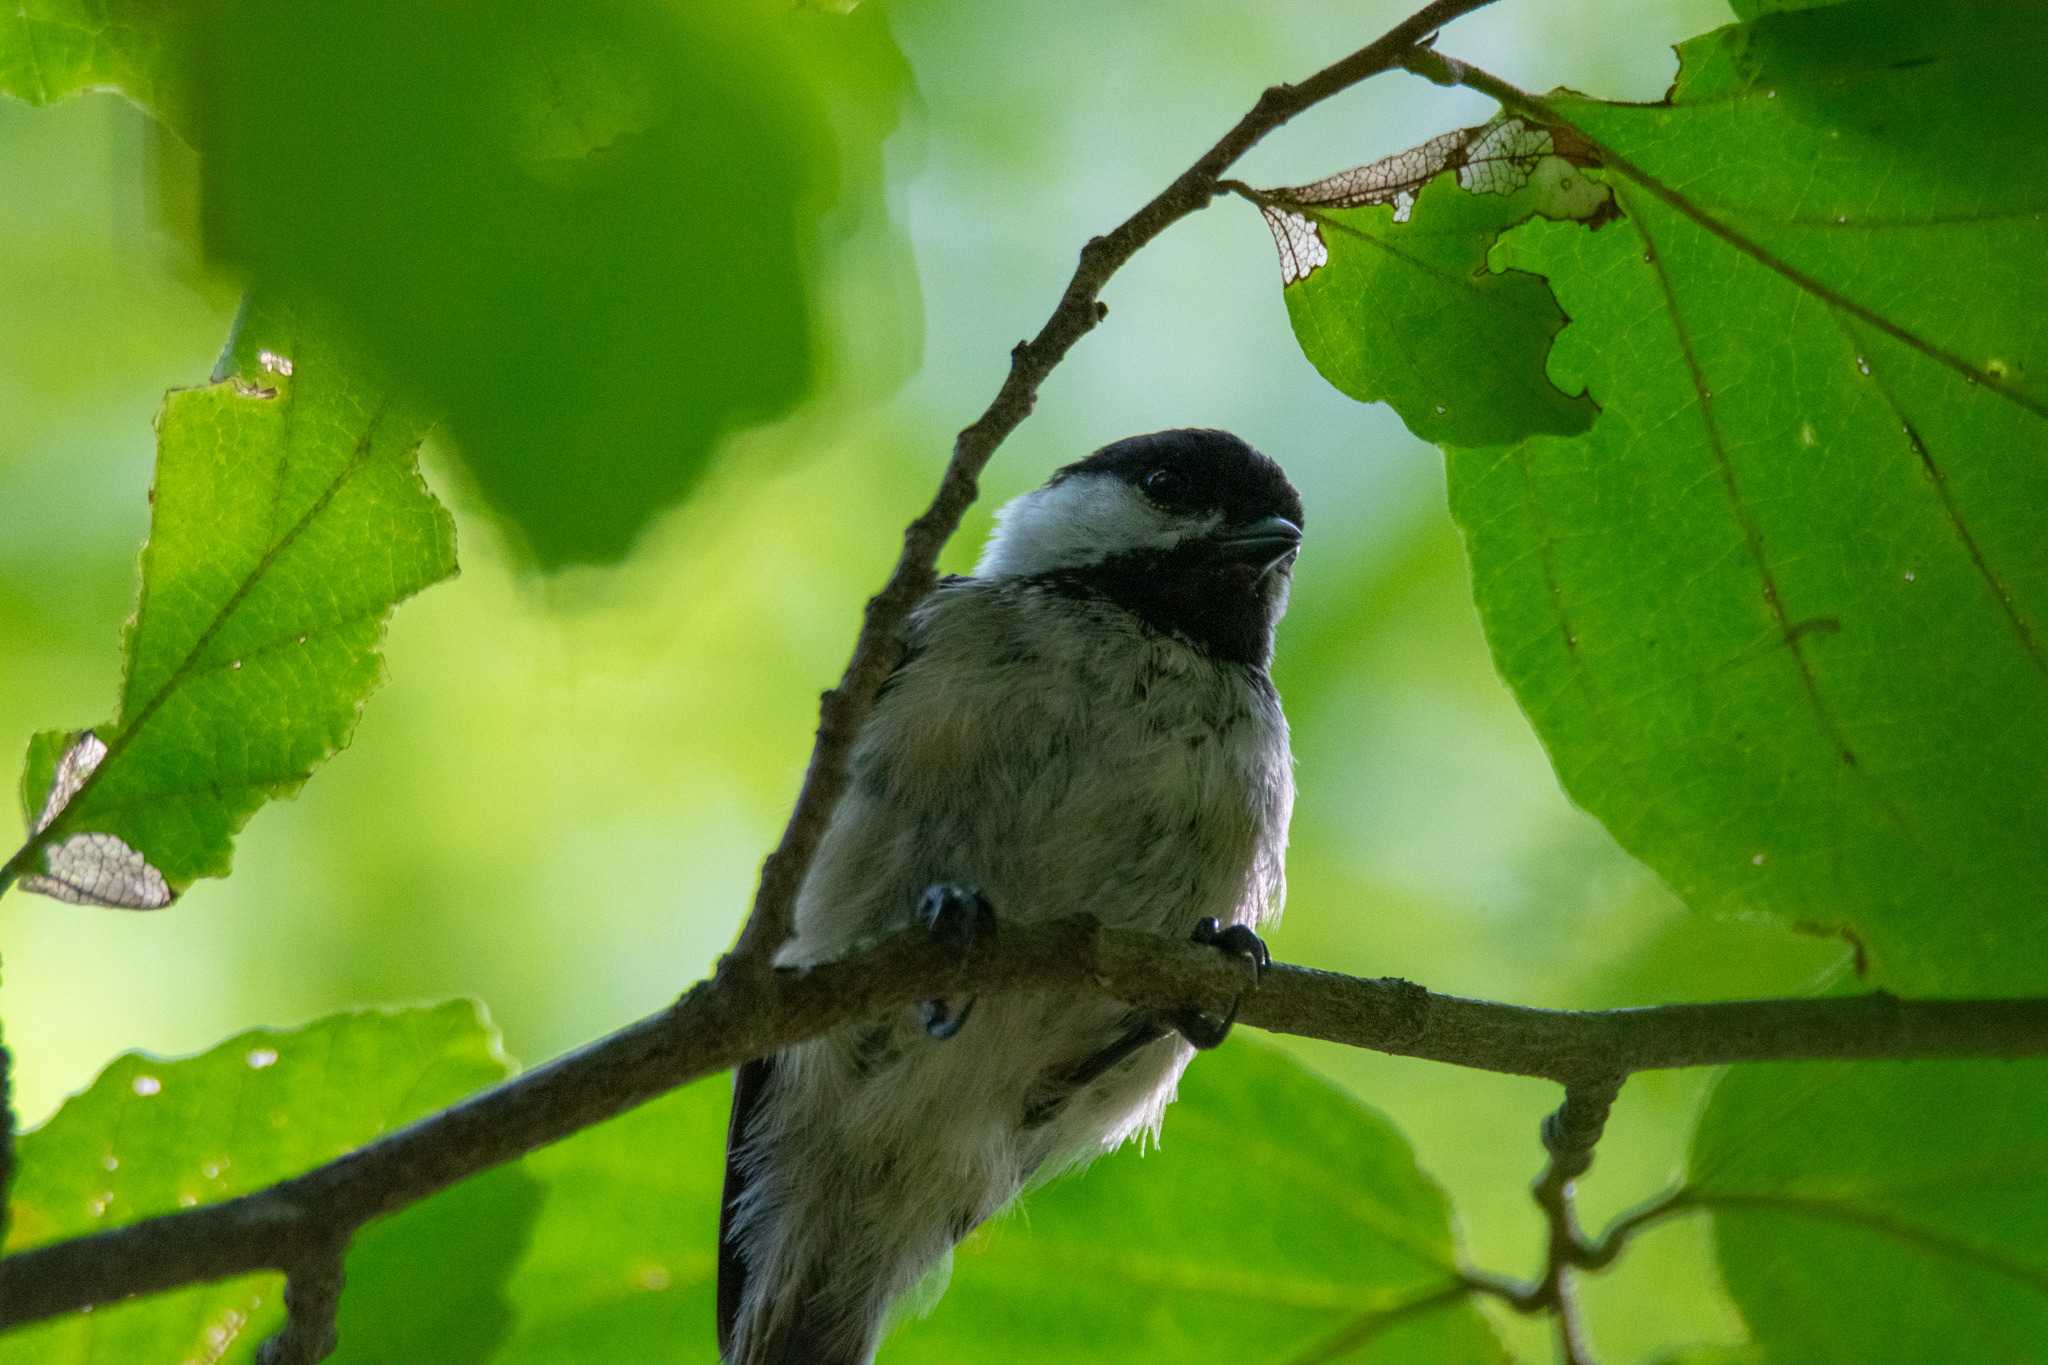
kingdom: Animalia
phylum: Chordata
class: Aves
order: Passeriformes
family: Paridae
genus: Poecile
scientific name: Poecile atricapillus
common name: Black-capped chickadee
